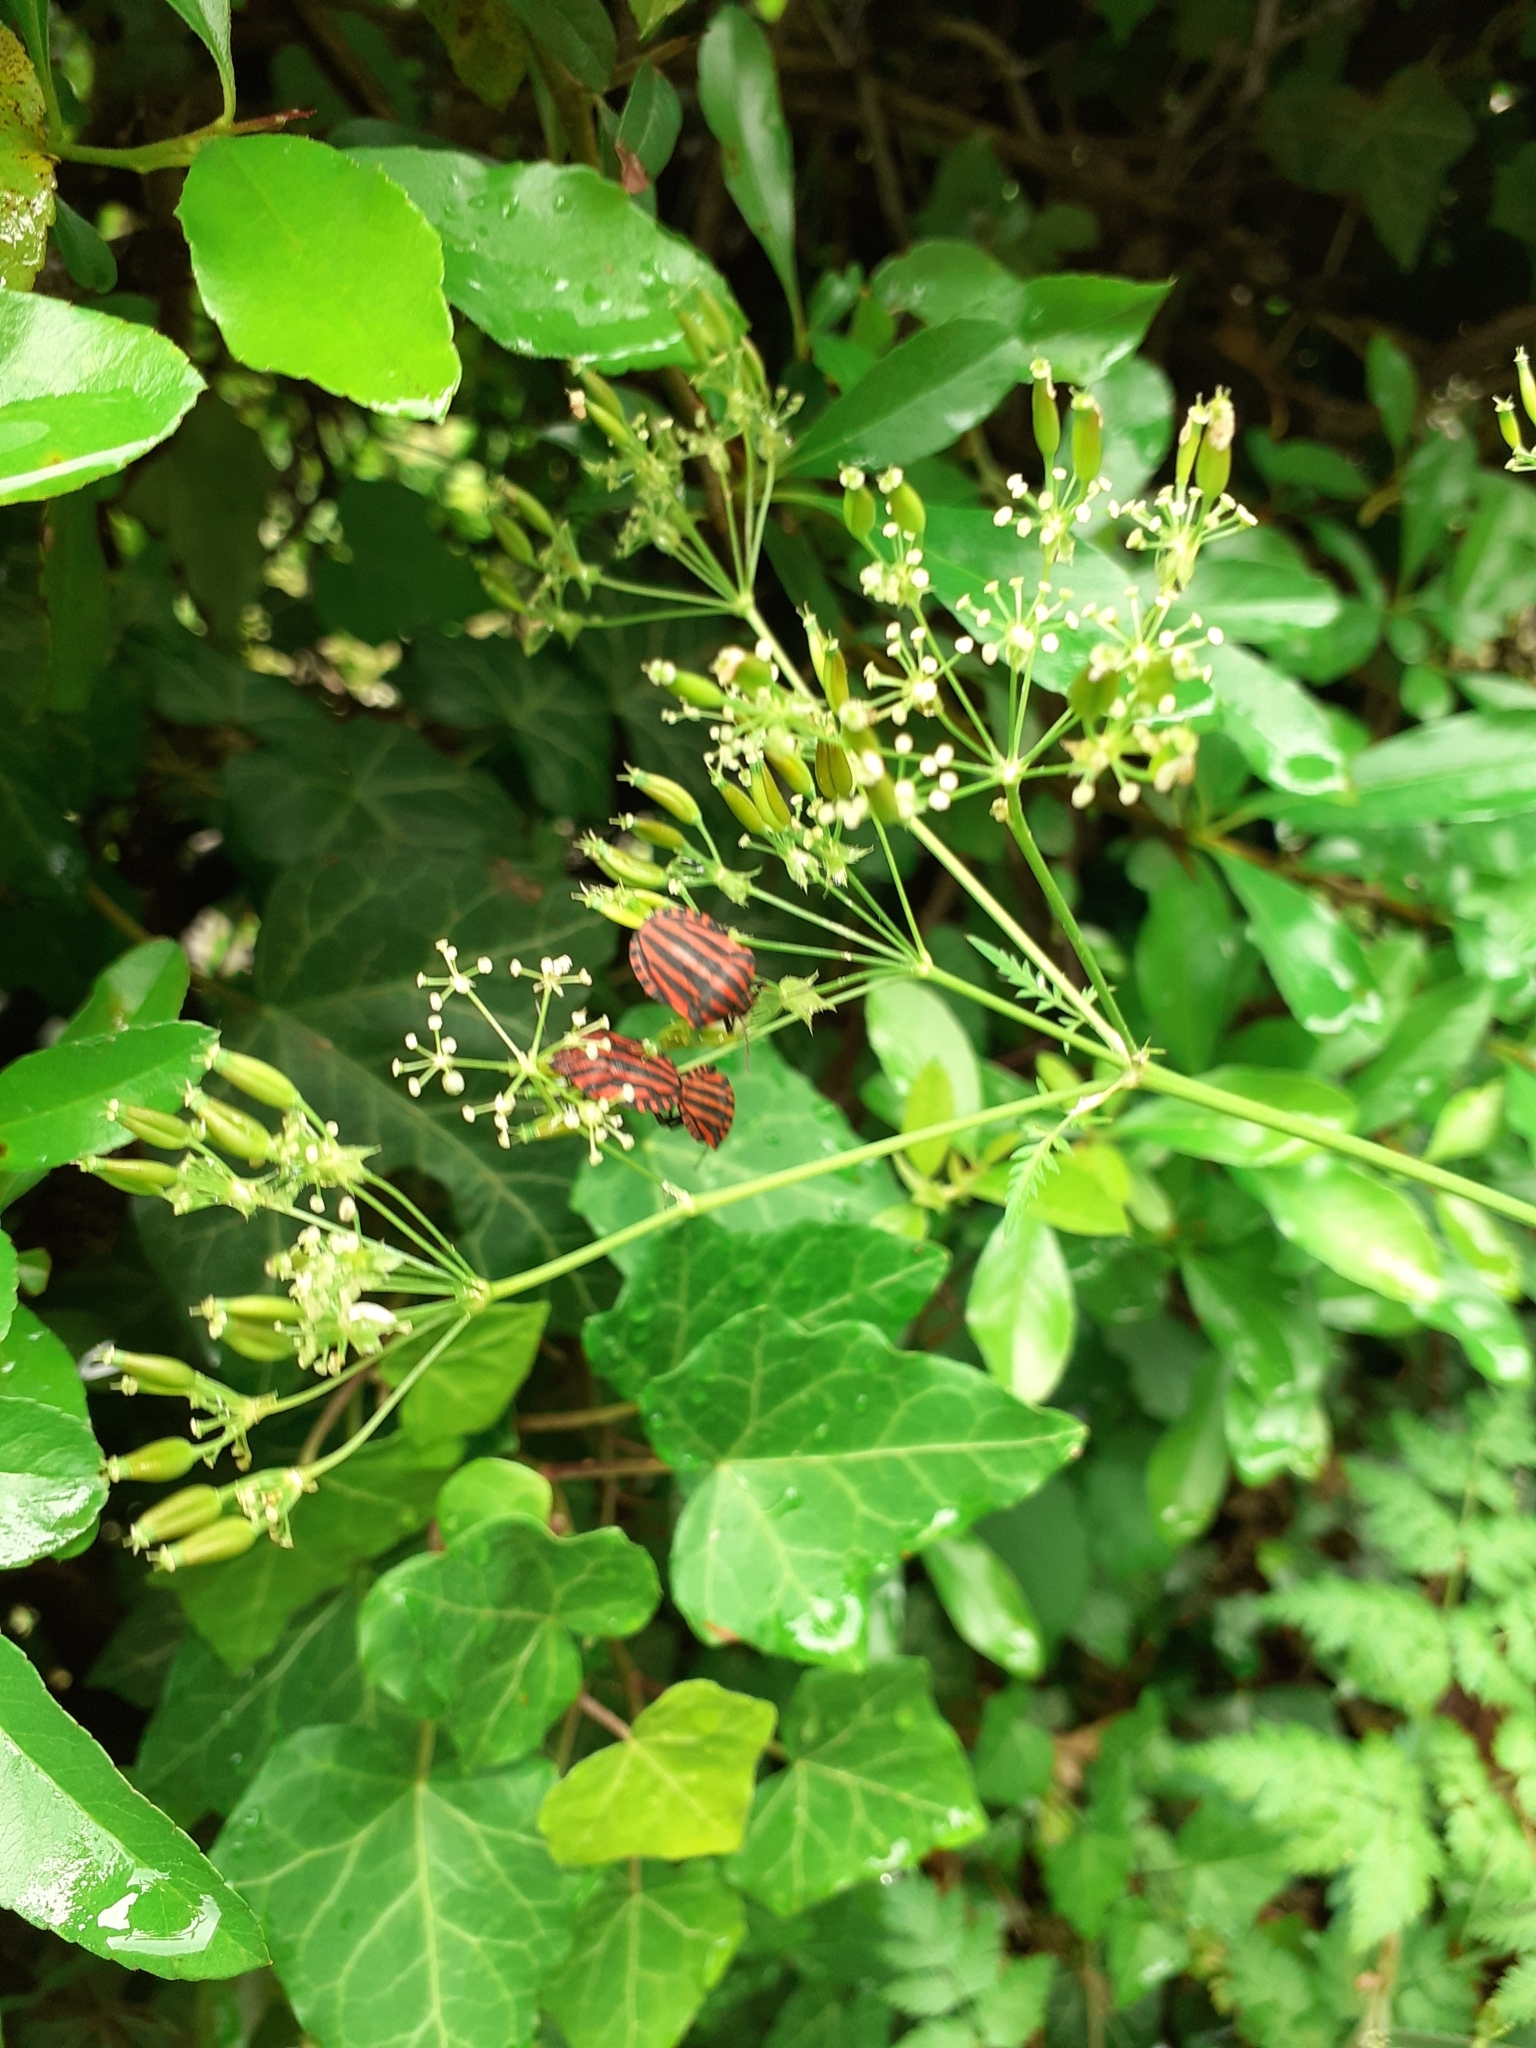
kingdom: Animalia
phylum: Arthropoda
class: Insecta
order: Hemiptera
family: Pentatomidae
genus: Graphosoma
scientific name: Graphosoma italicum
